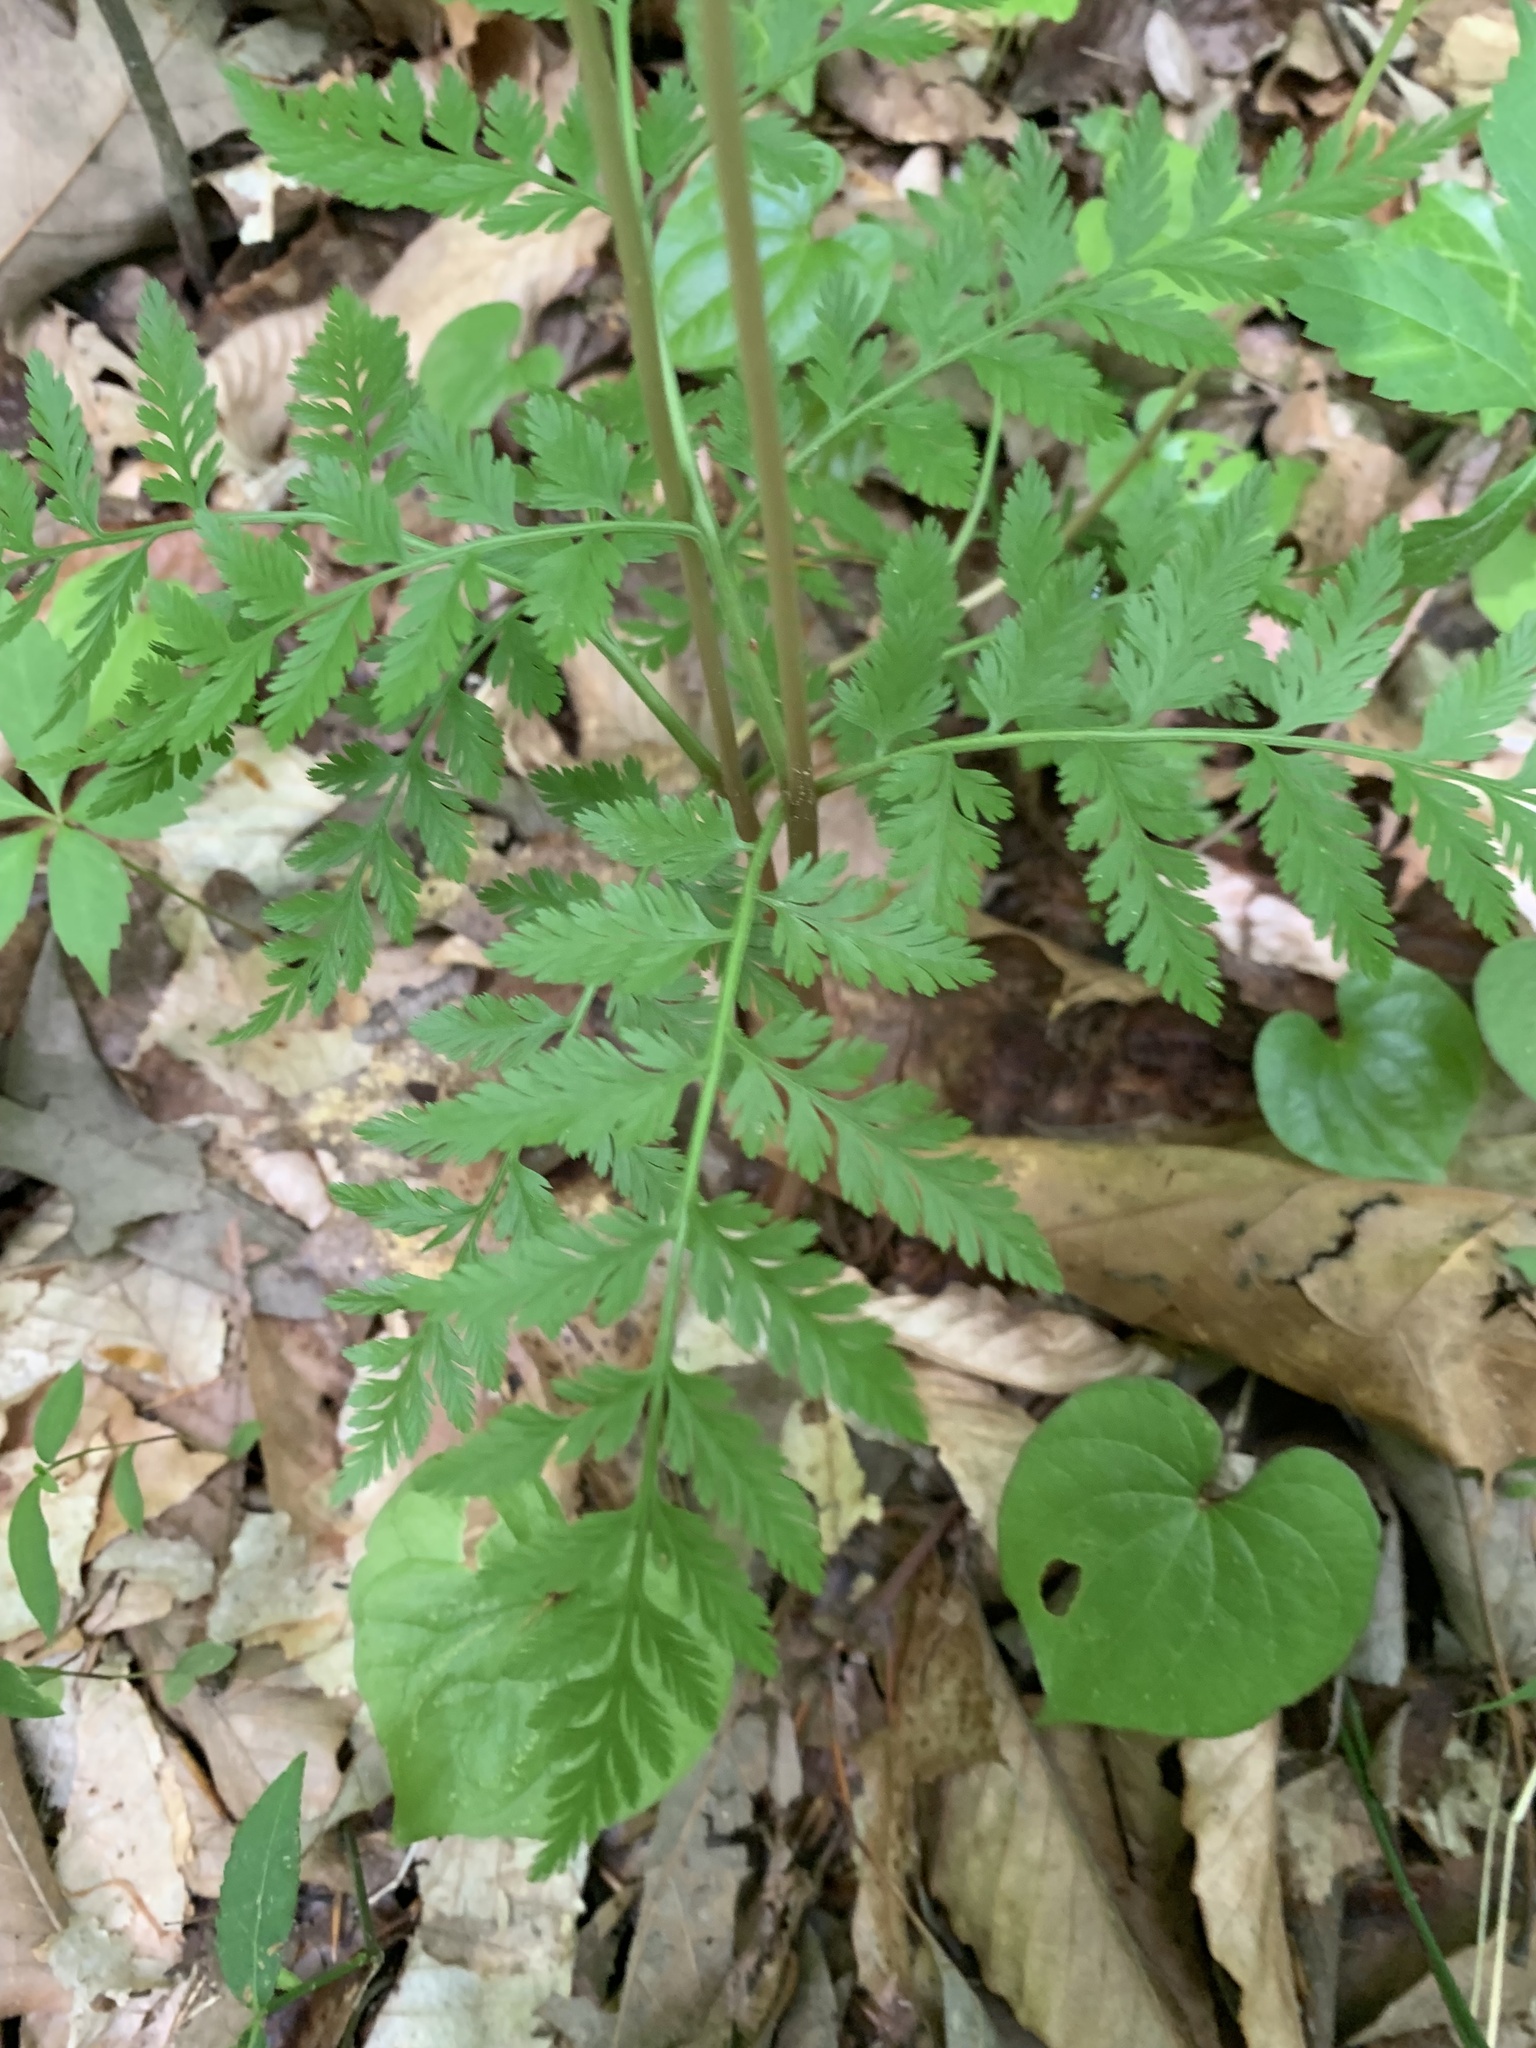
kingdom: Plantae
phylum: Tracheophyta
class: Polypodiopsida
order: Ophioglossales
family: Ophioglossaceae
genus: Botrypus
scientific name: Botrypus virginianus
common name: Common grapefern
